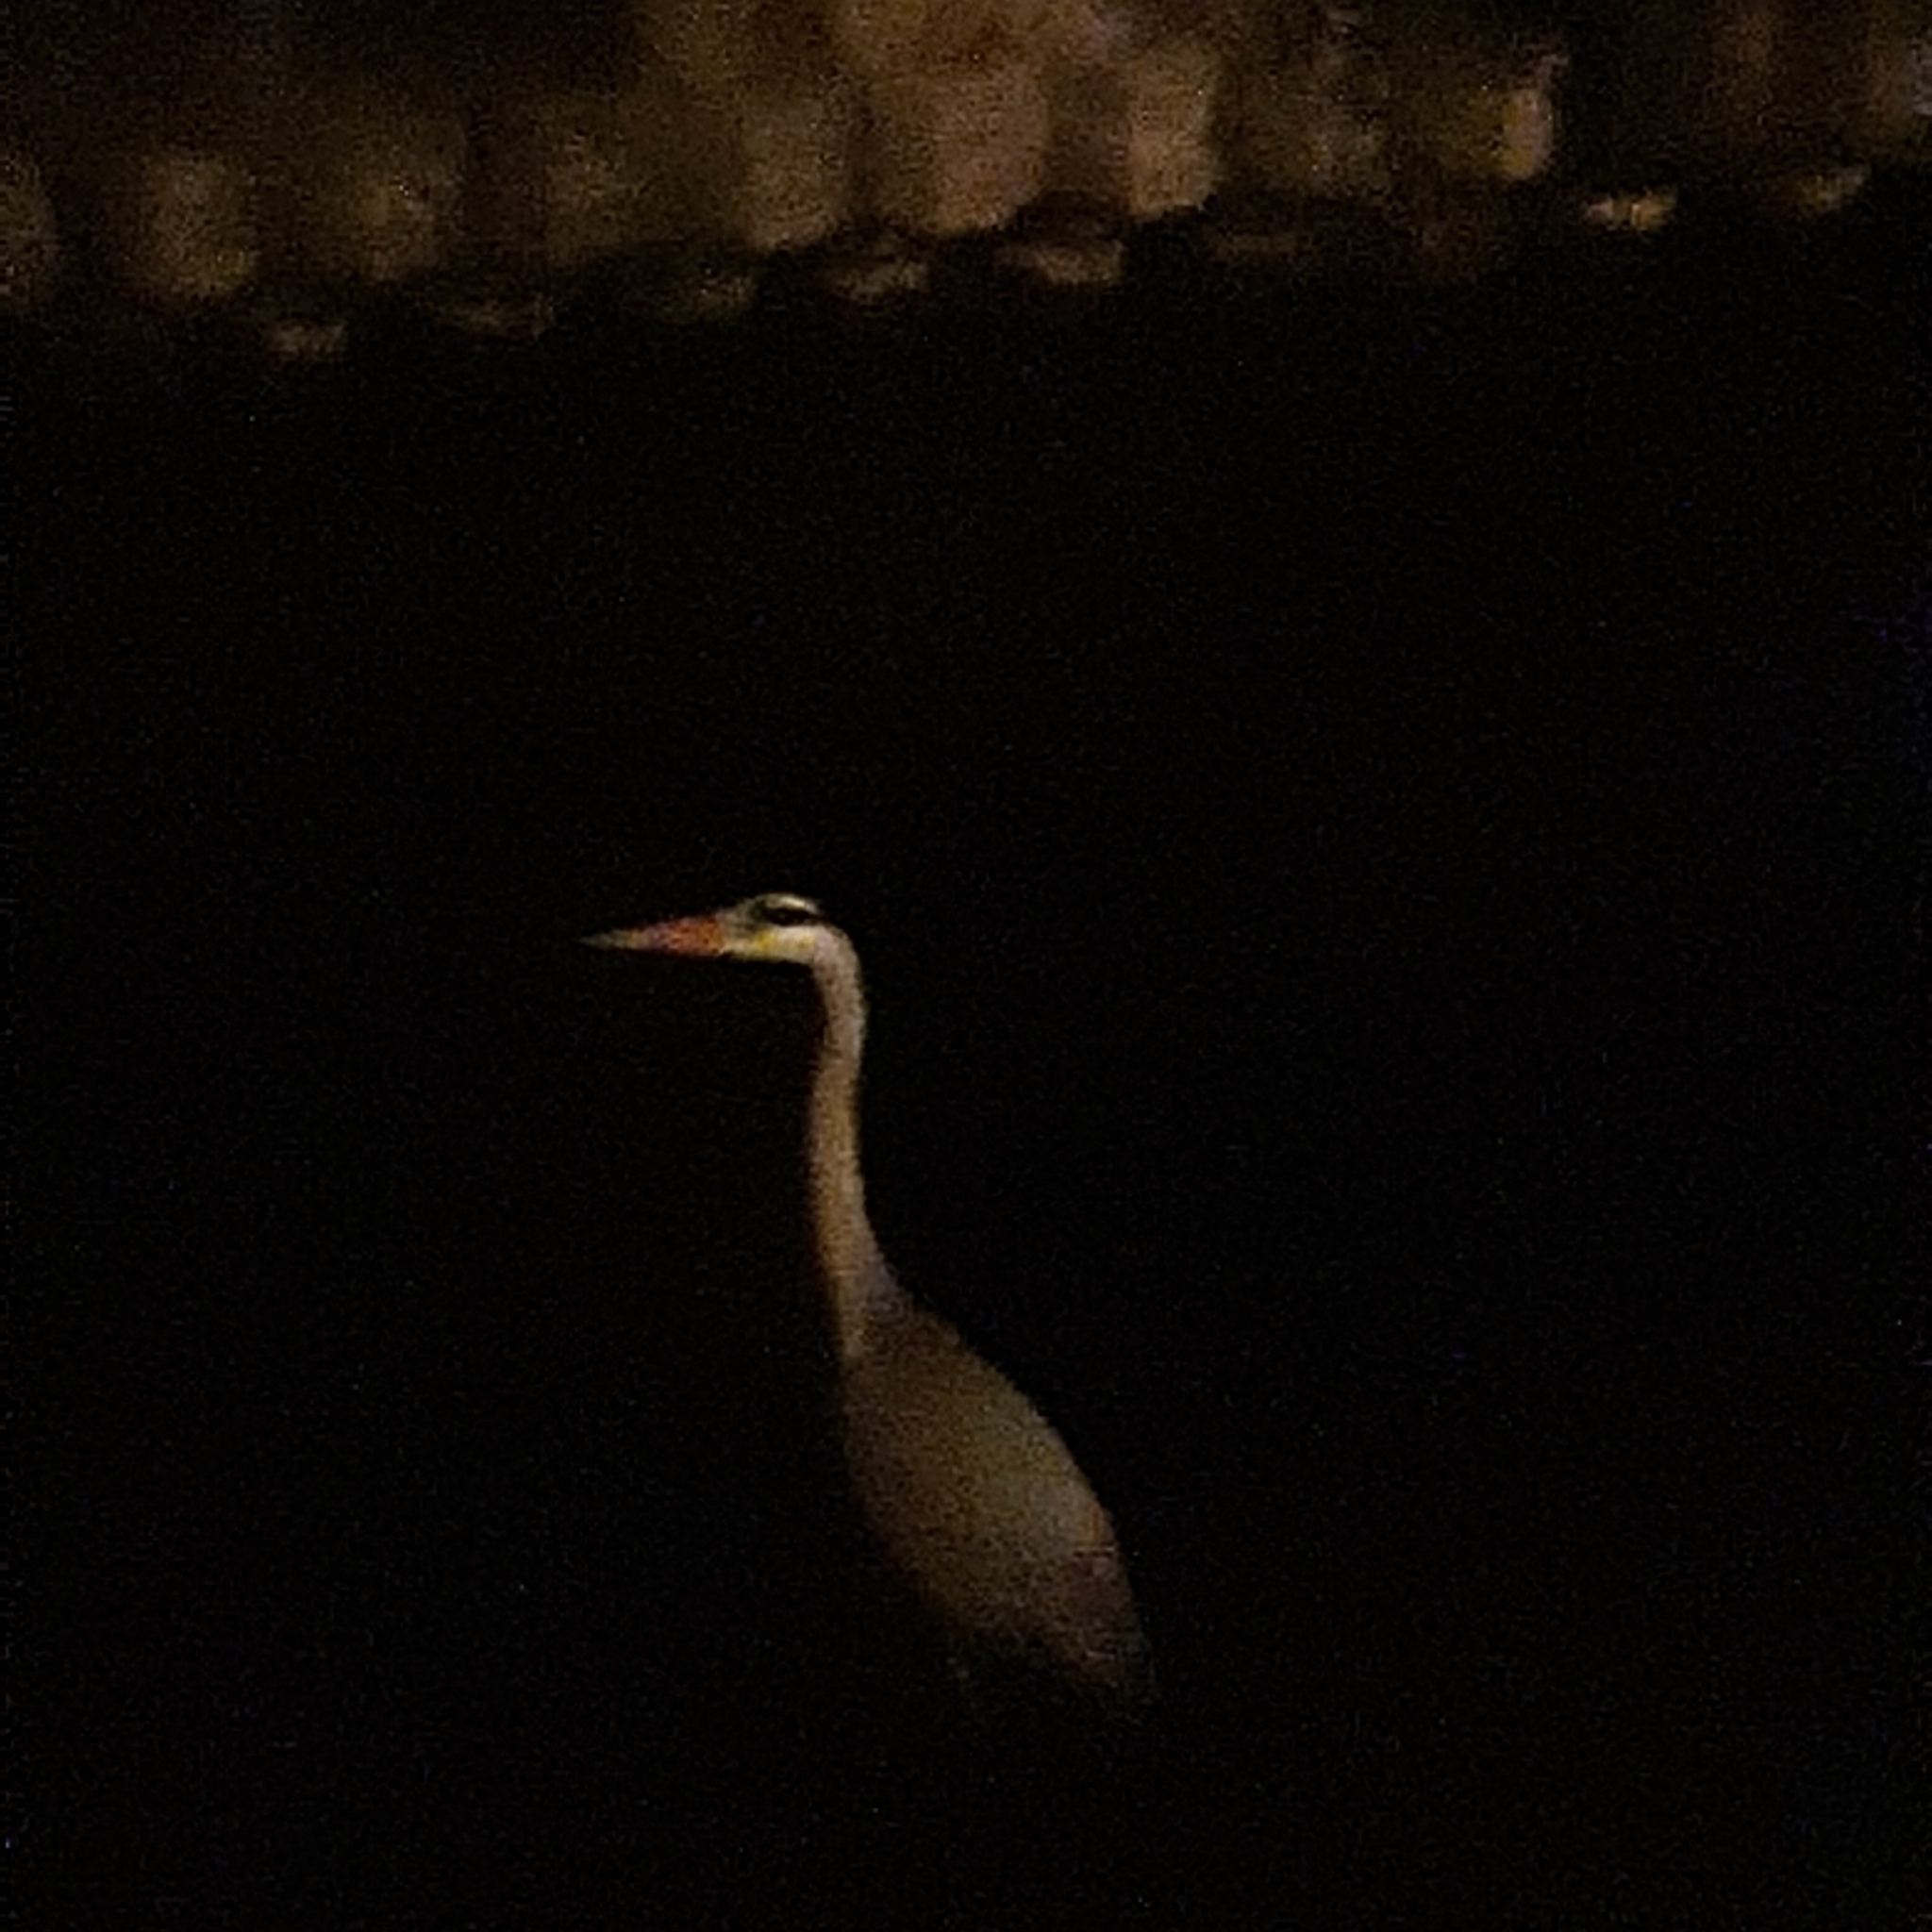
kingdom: Animalia
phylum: Chordata
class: Aves
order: Pelecaniformes
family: Ardeidae
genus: Ardea
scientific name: Ardea cinerea
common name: Grey heron
